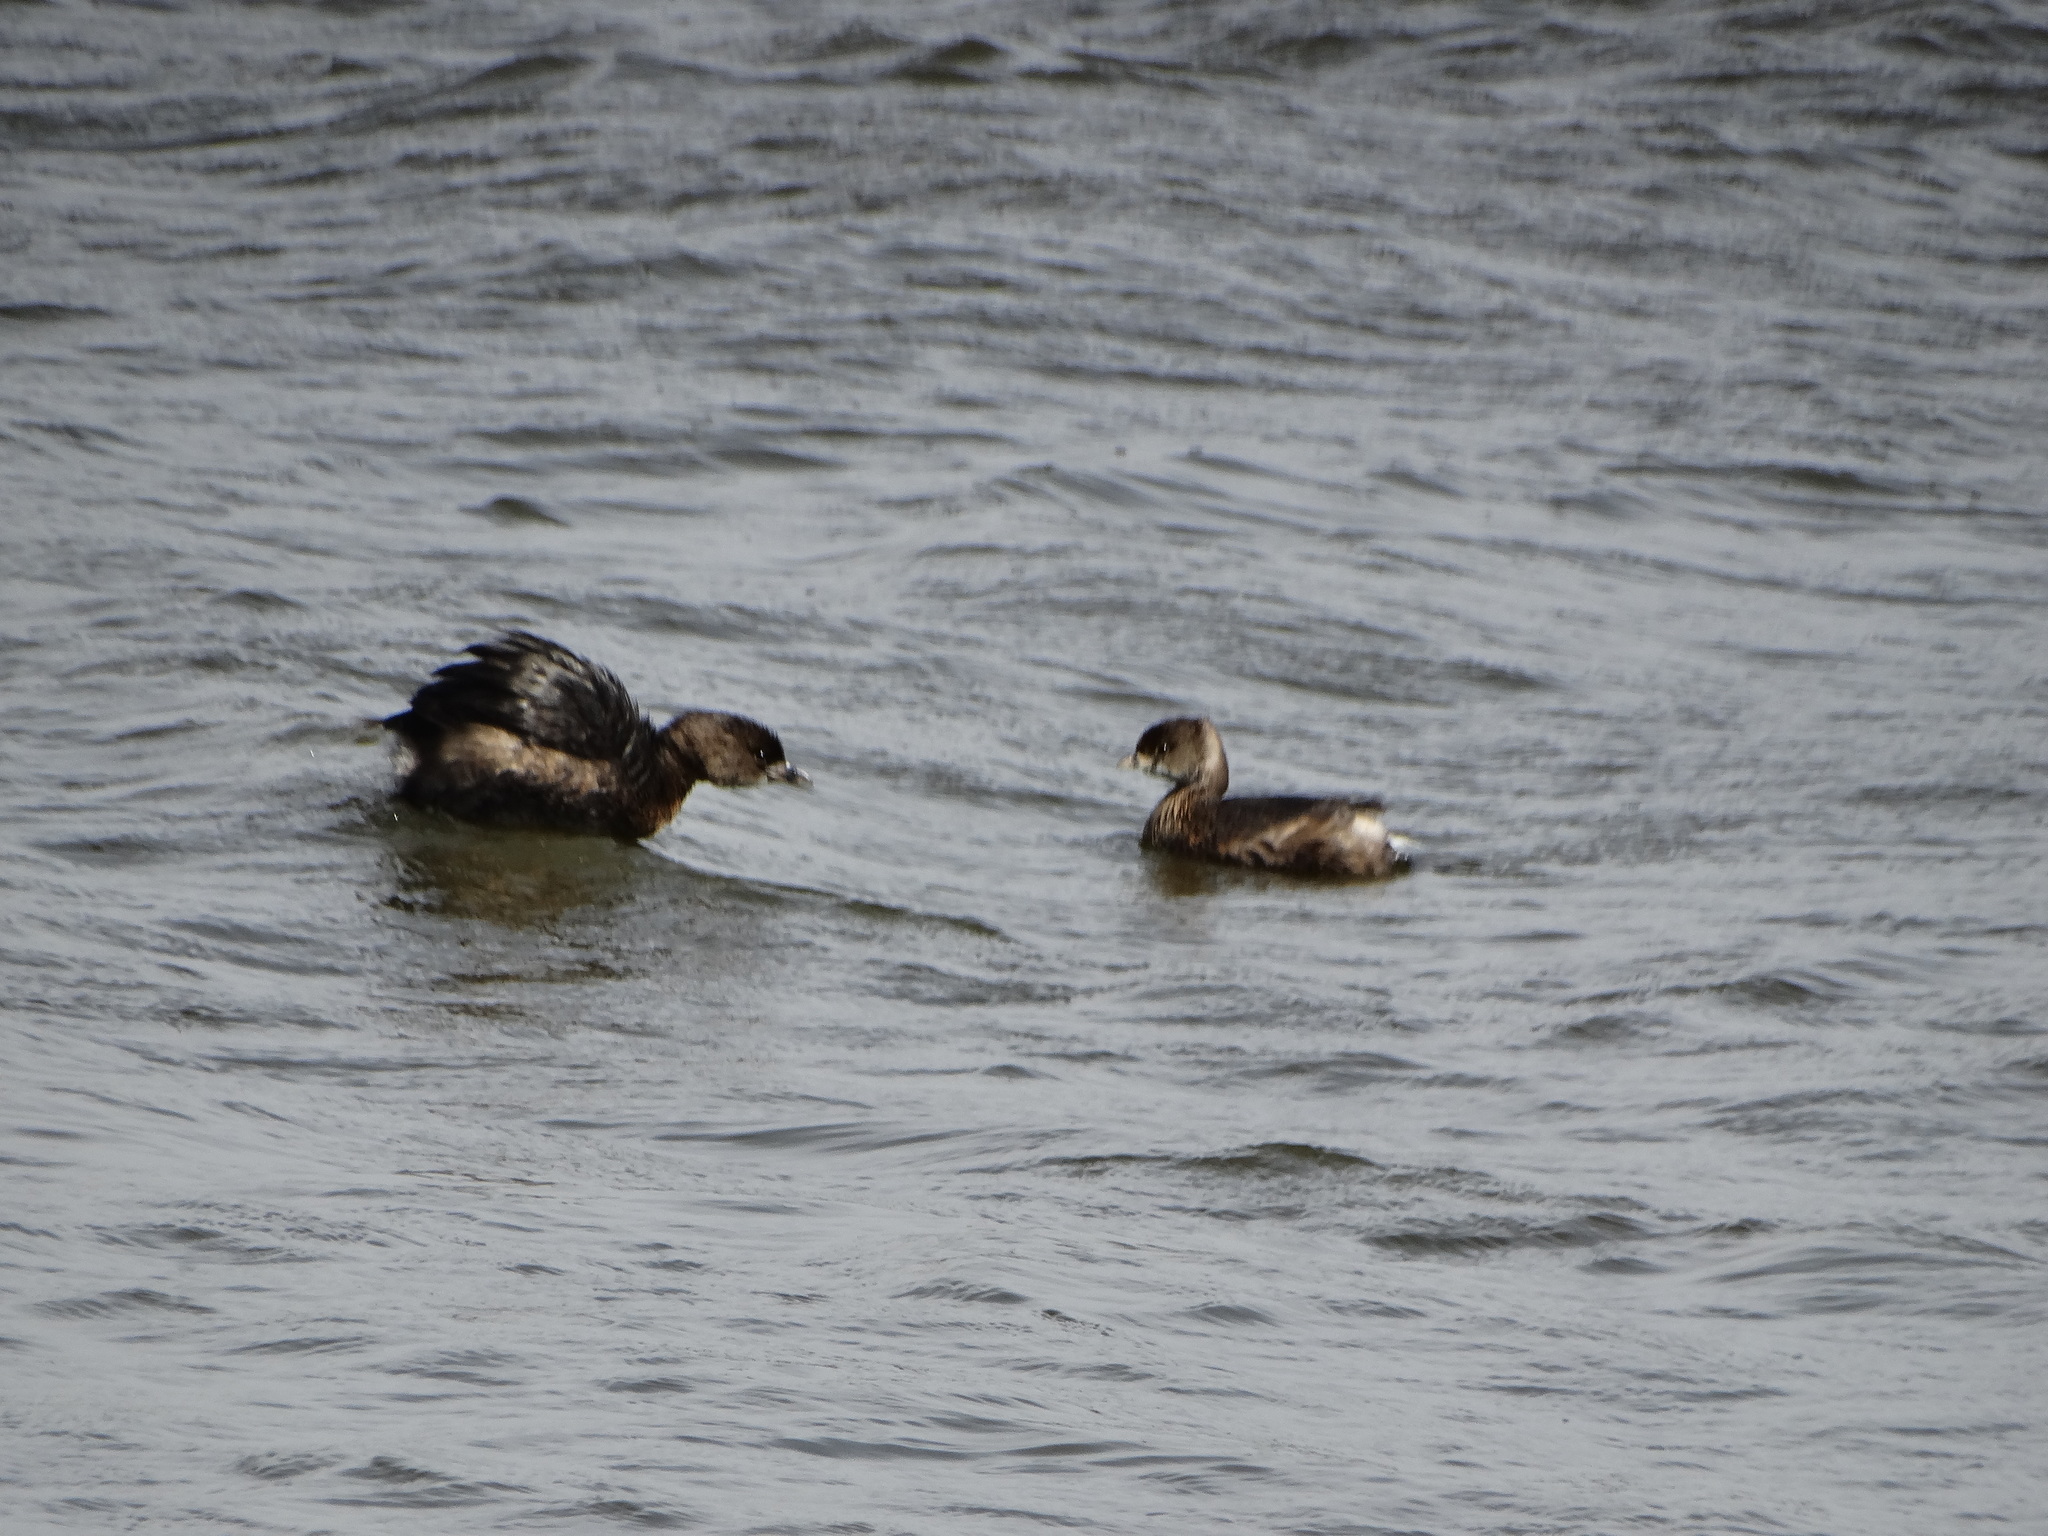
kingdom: Animalia
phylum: Chordata
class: Aves
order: Podicipediformes
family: Podicipedidae
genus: Podilymbus
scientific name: Podilymbus podiceps
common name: Pied-billed grebe
